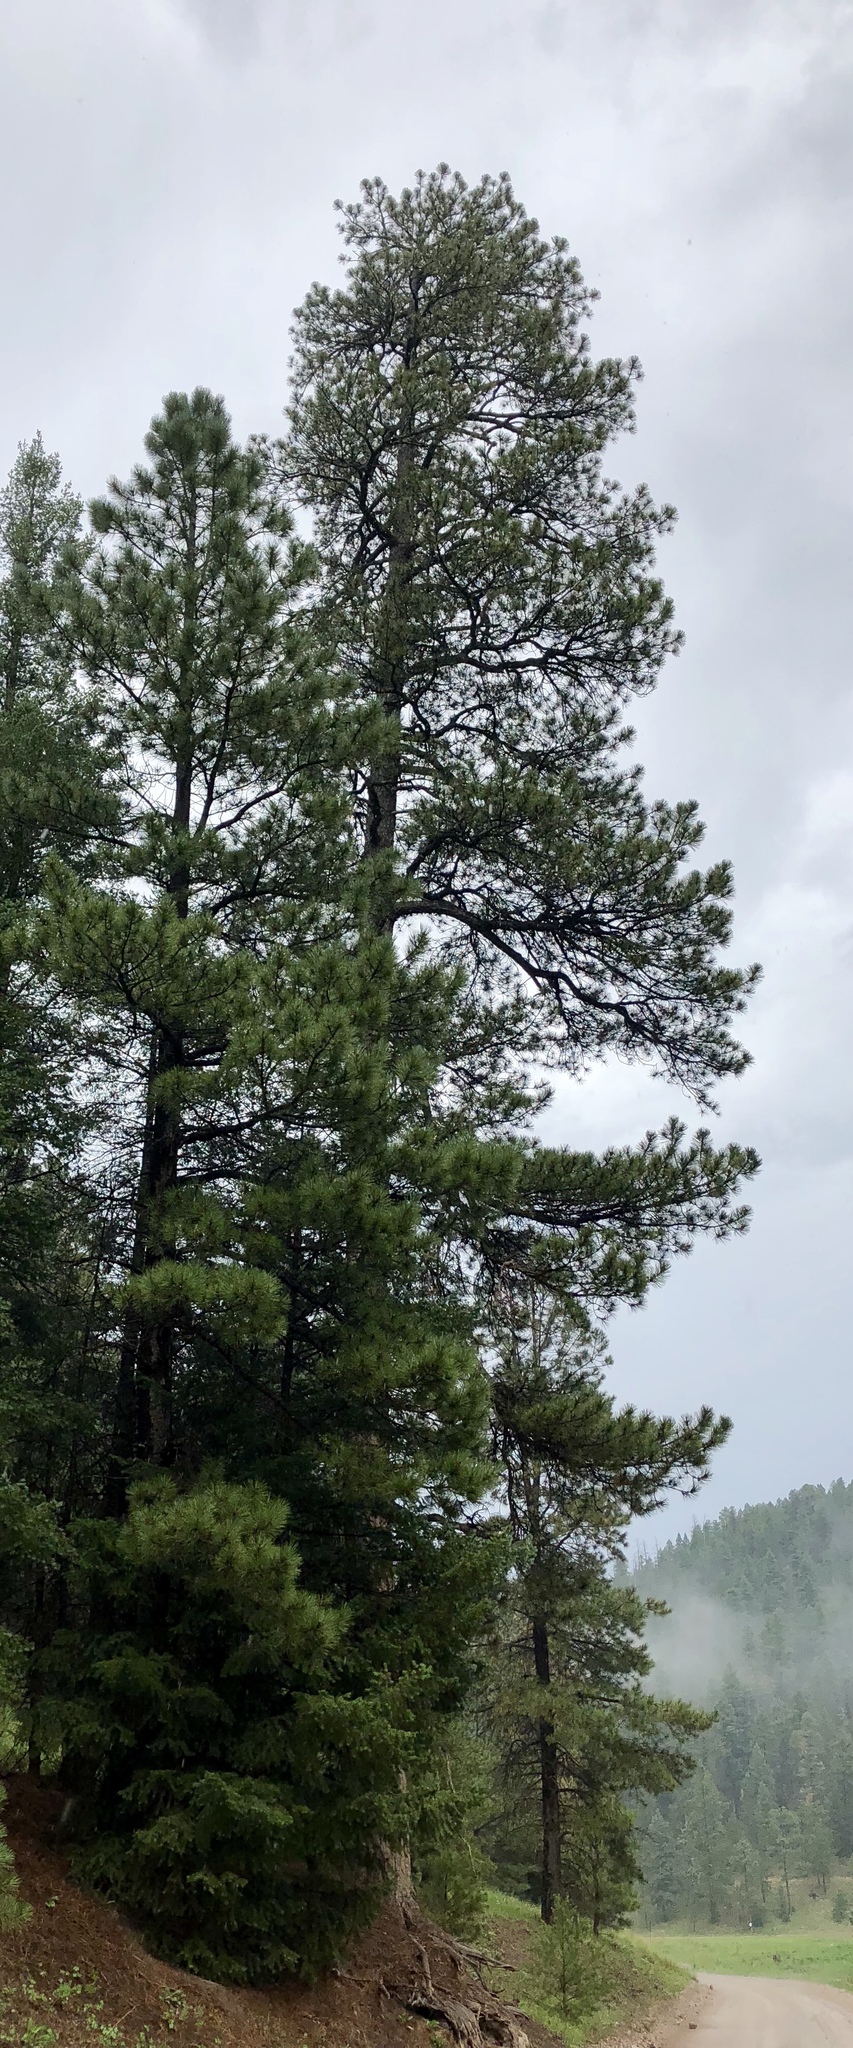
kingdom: Plantae
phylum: Tracheophyta
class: Pinopsida
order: Pinales
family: Pinaceae
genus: Pinus
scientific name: Pinus ponderosa
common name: Western yellow-pine
